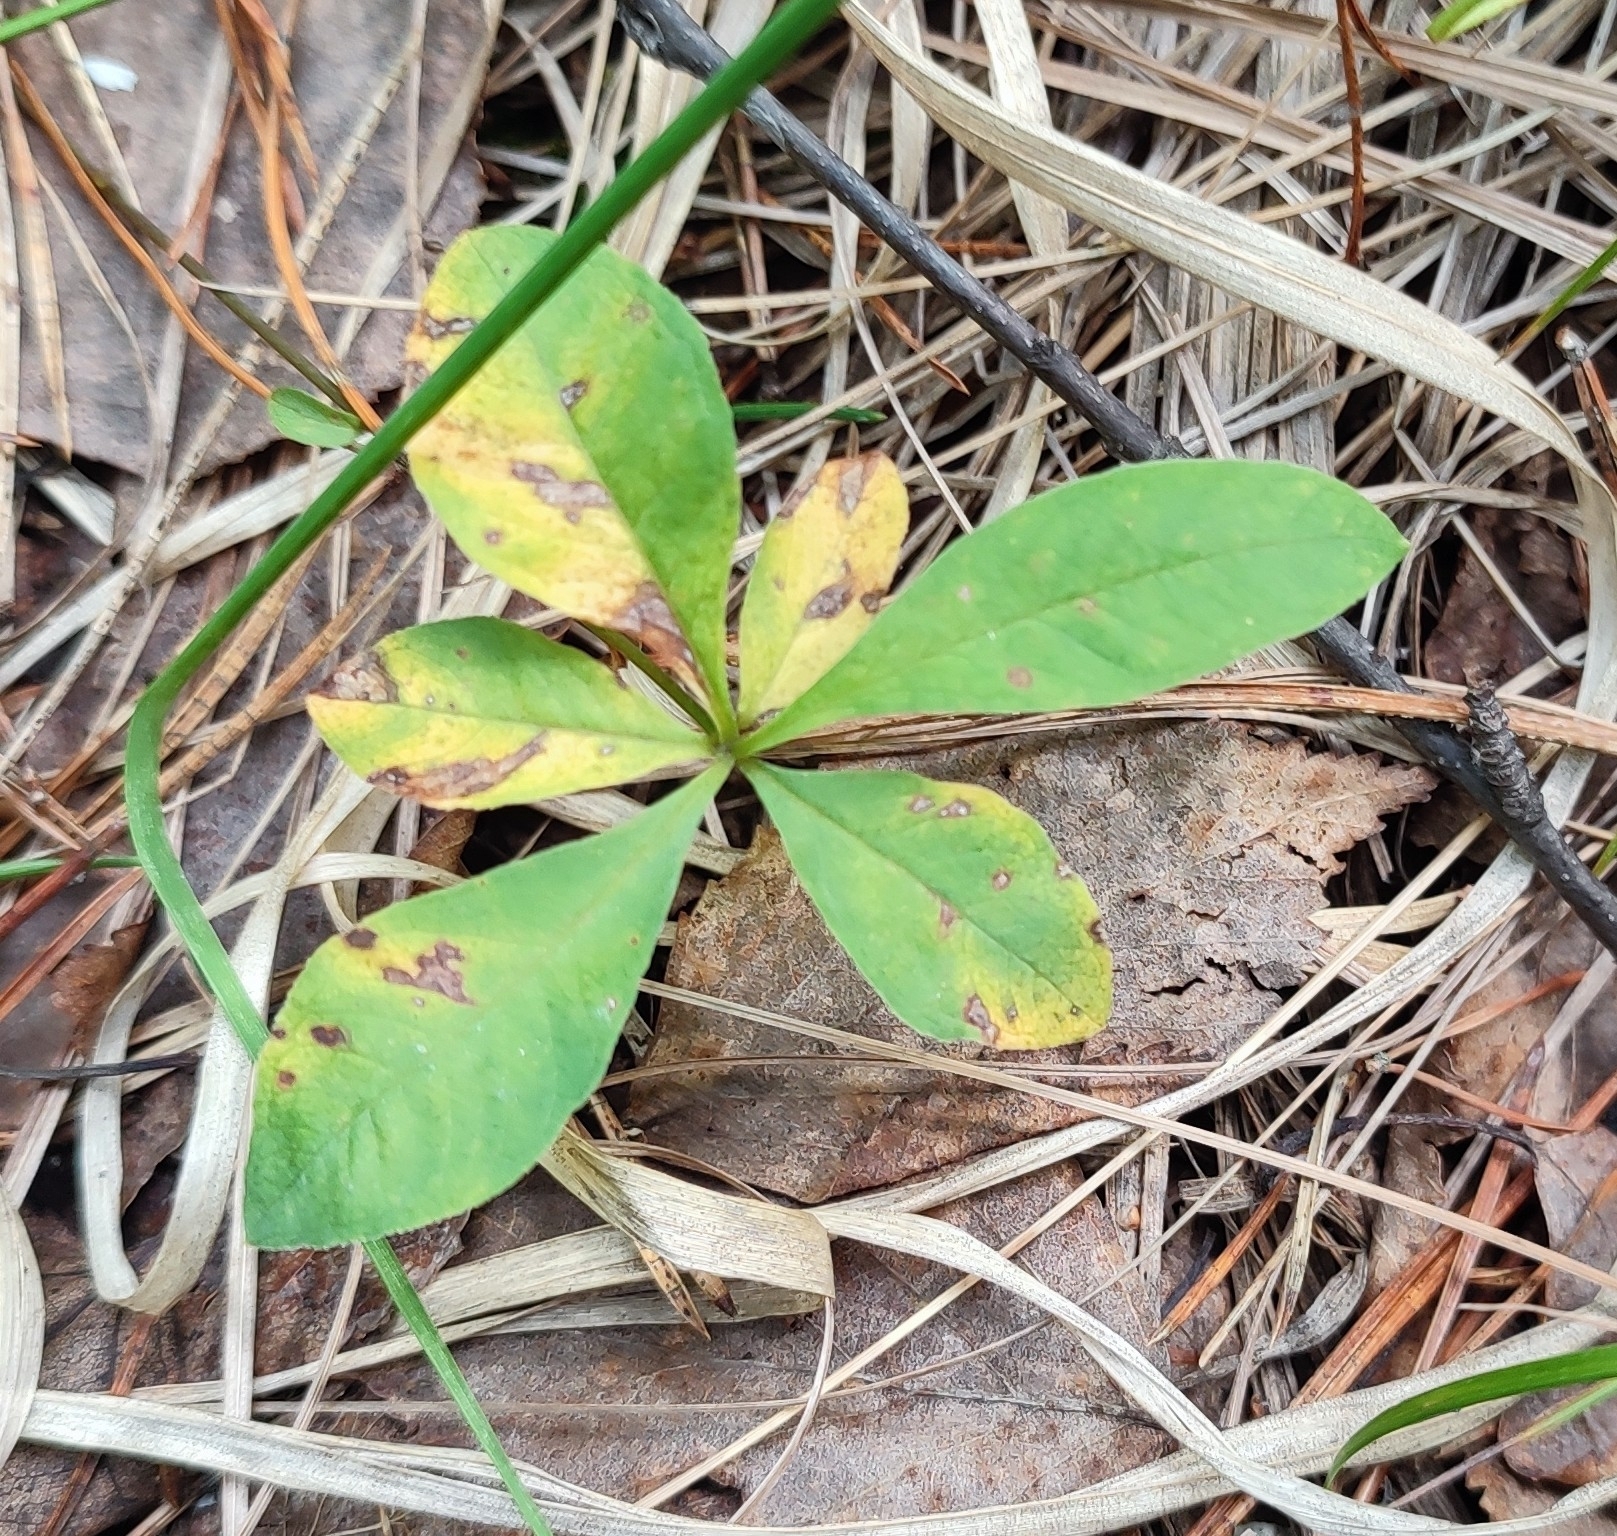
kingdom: Plantae
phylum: Tracheophyta
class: Magnoliopsida
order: Ericales
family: Primulaceae
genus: Lysimachia
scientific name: Lysimachia europaea
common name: Arctic starflower
